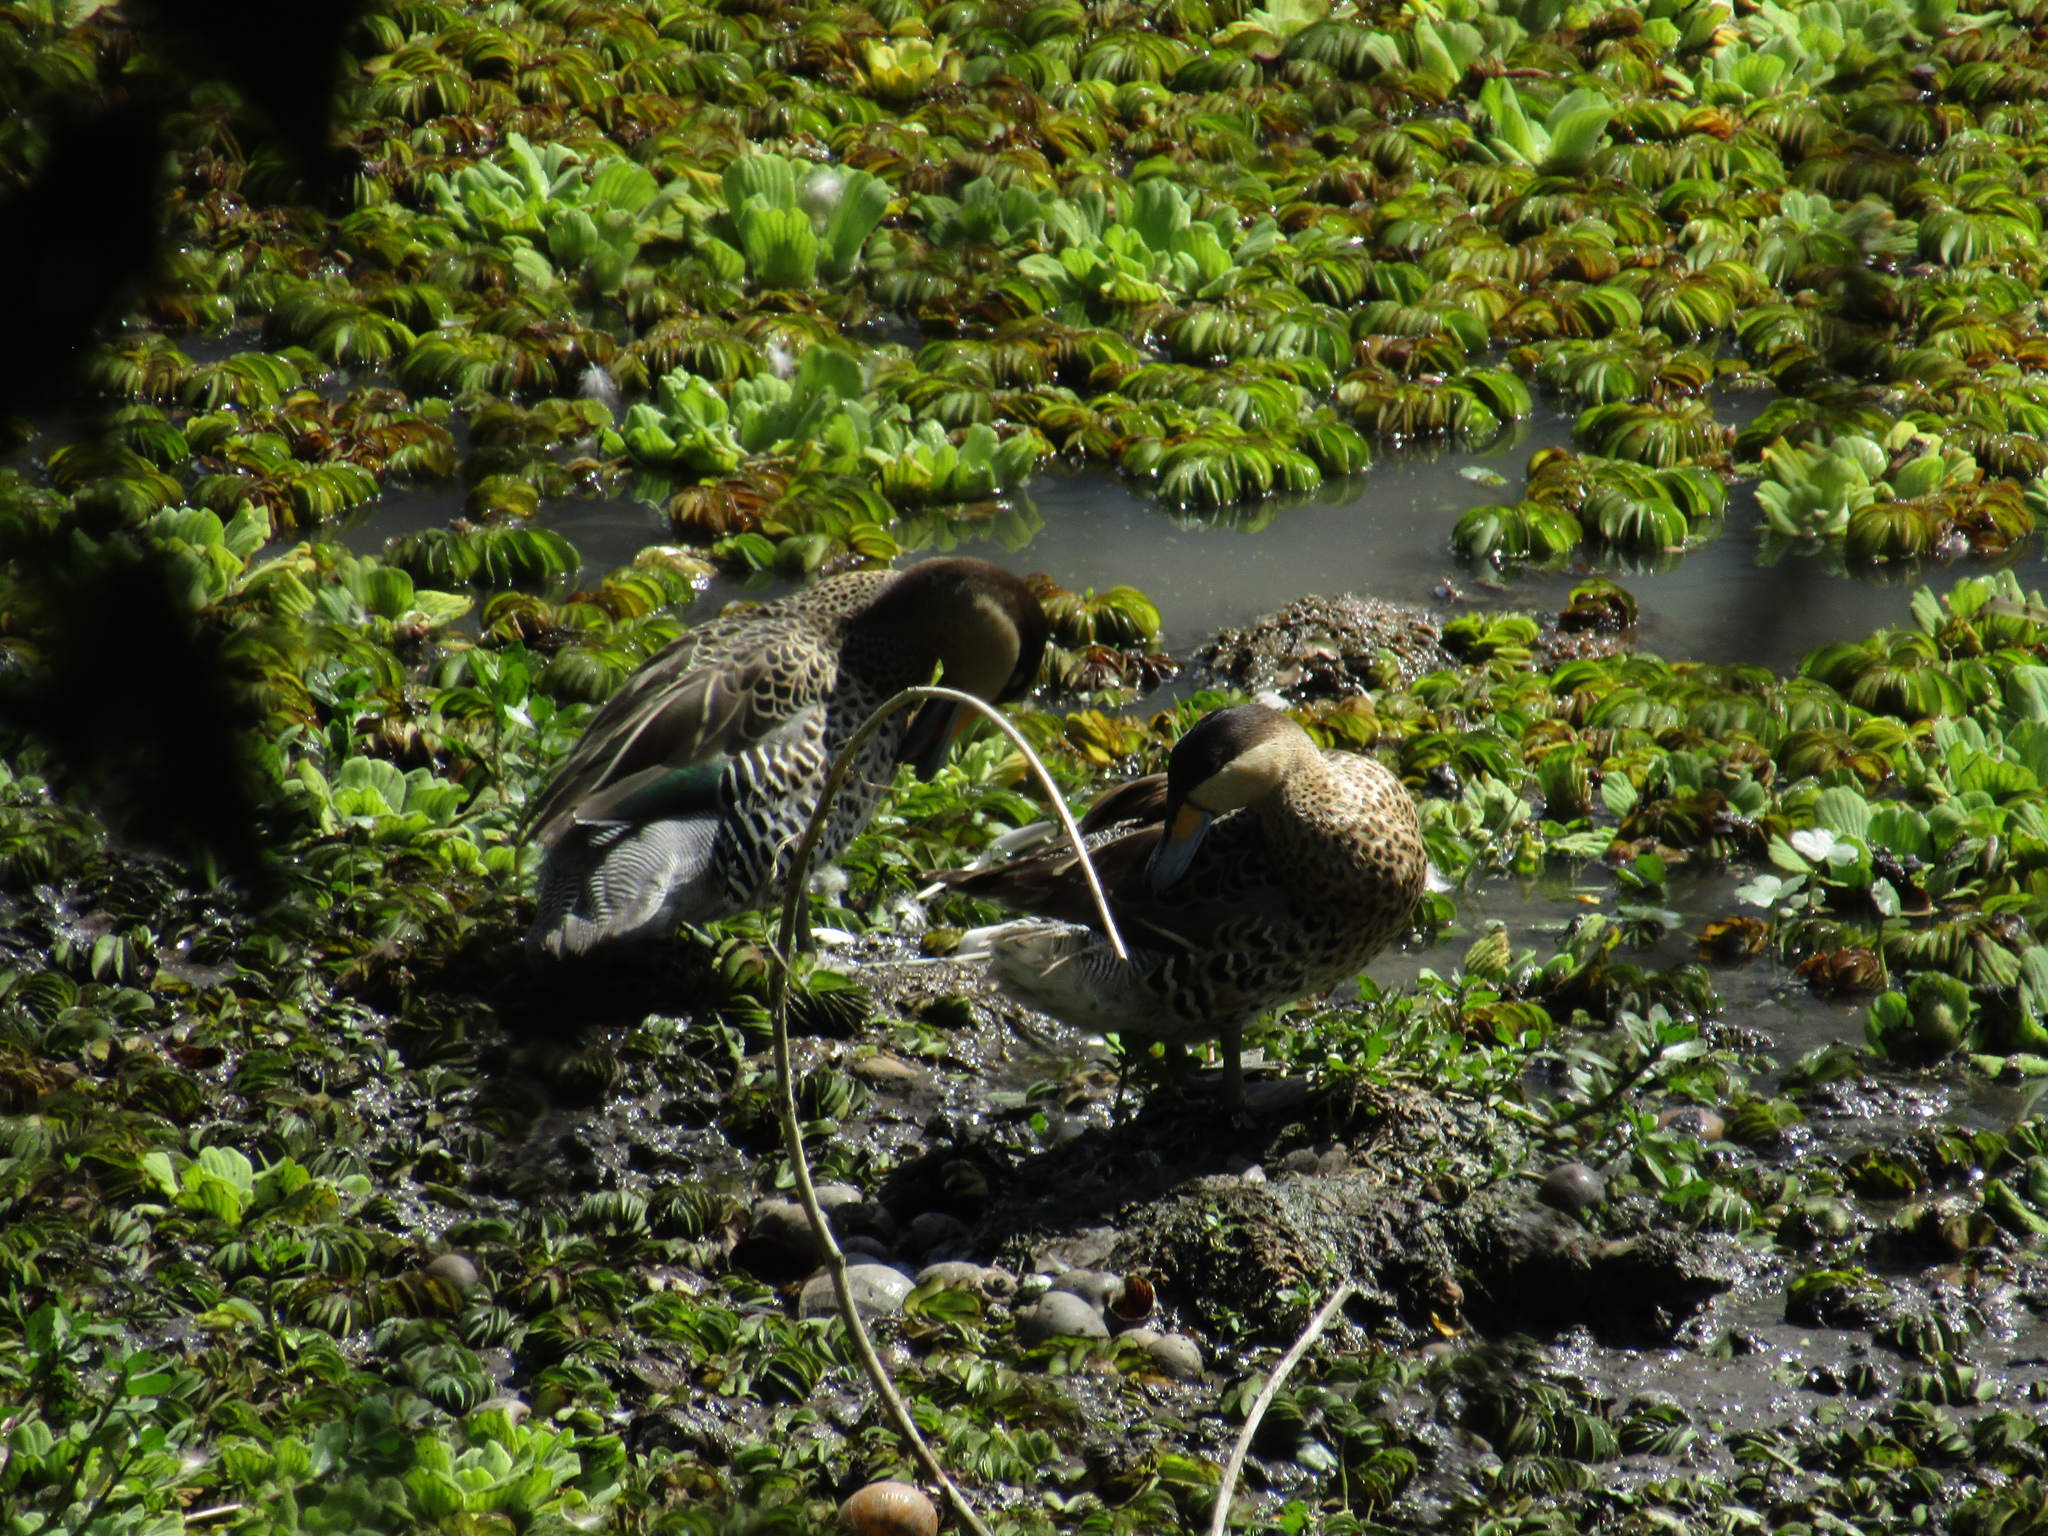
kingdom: Animalia
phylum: Chordata
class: Aves
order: Anseriformes
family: Anatidae
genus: Spatula
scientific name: Spatula versicolor
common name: Silver teal
